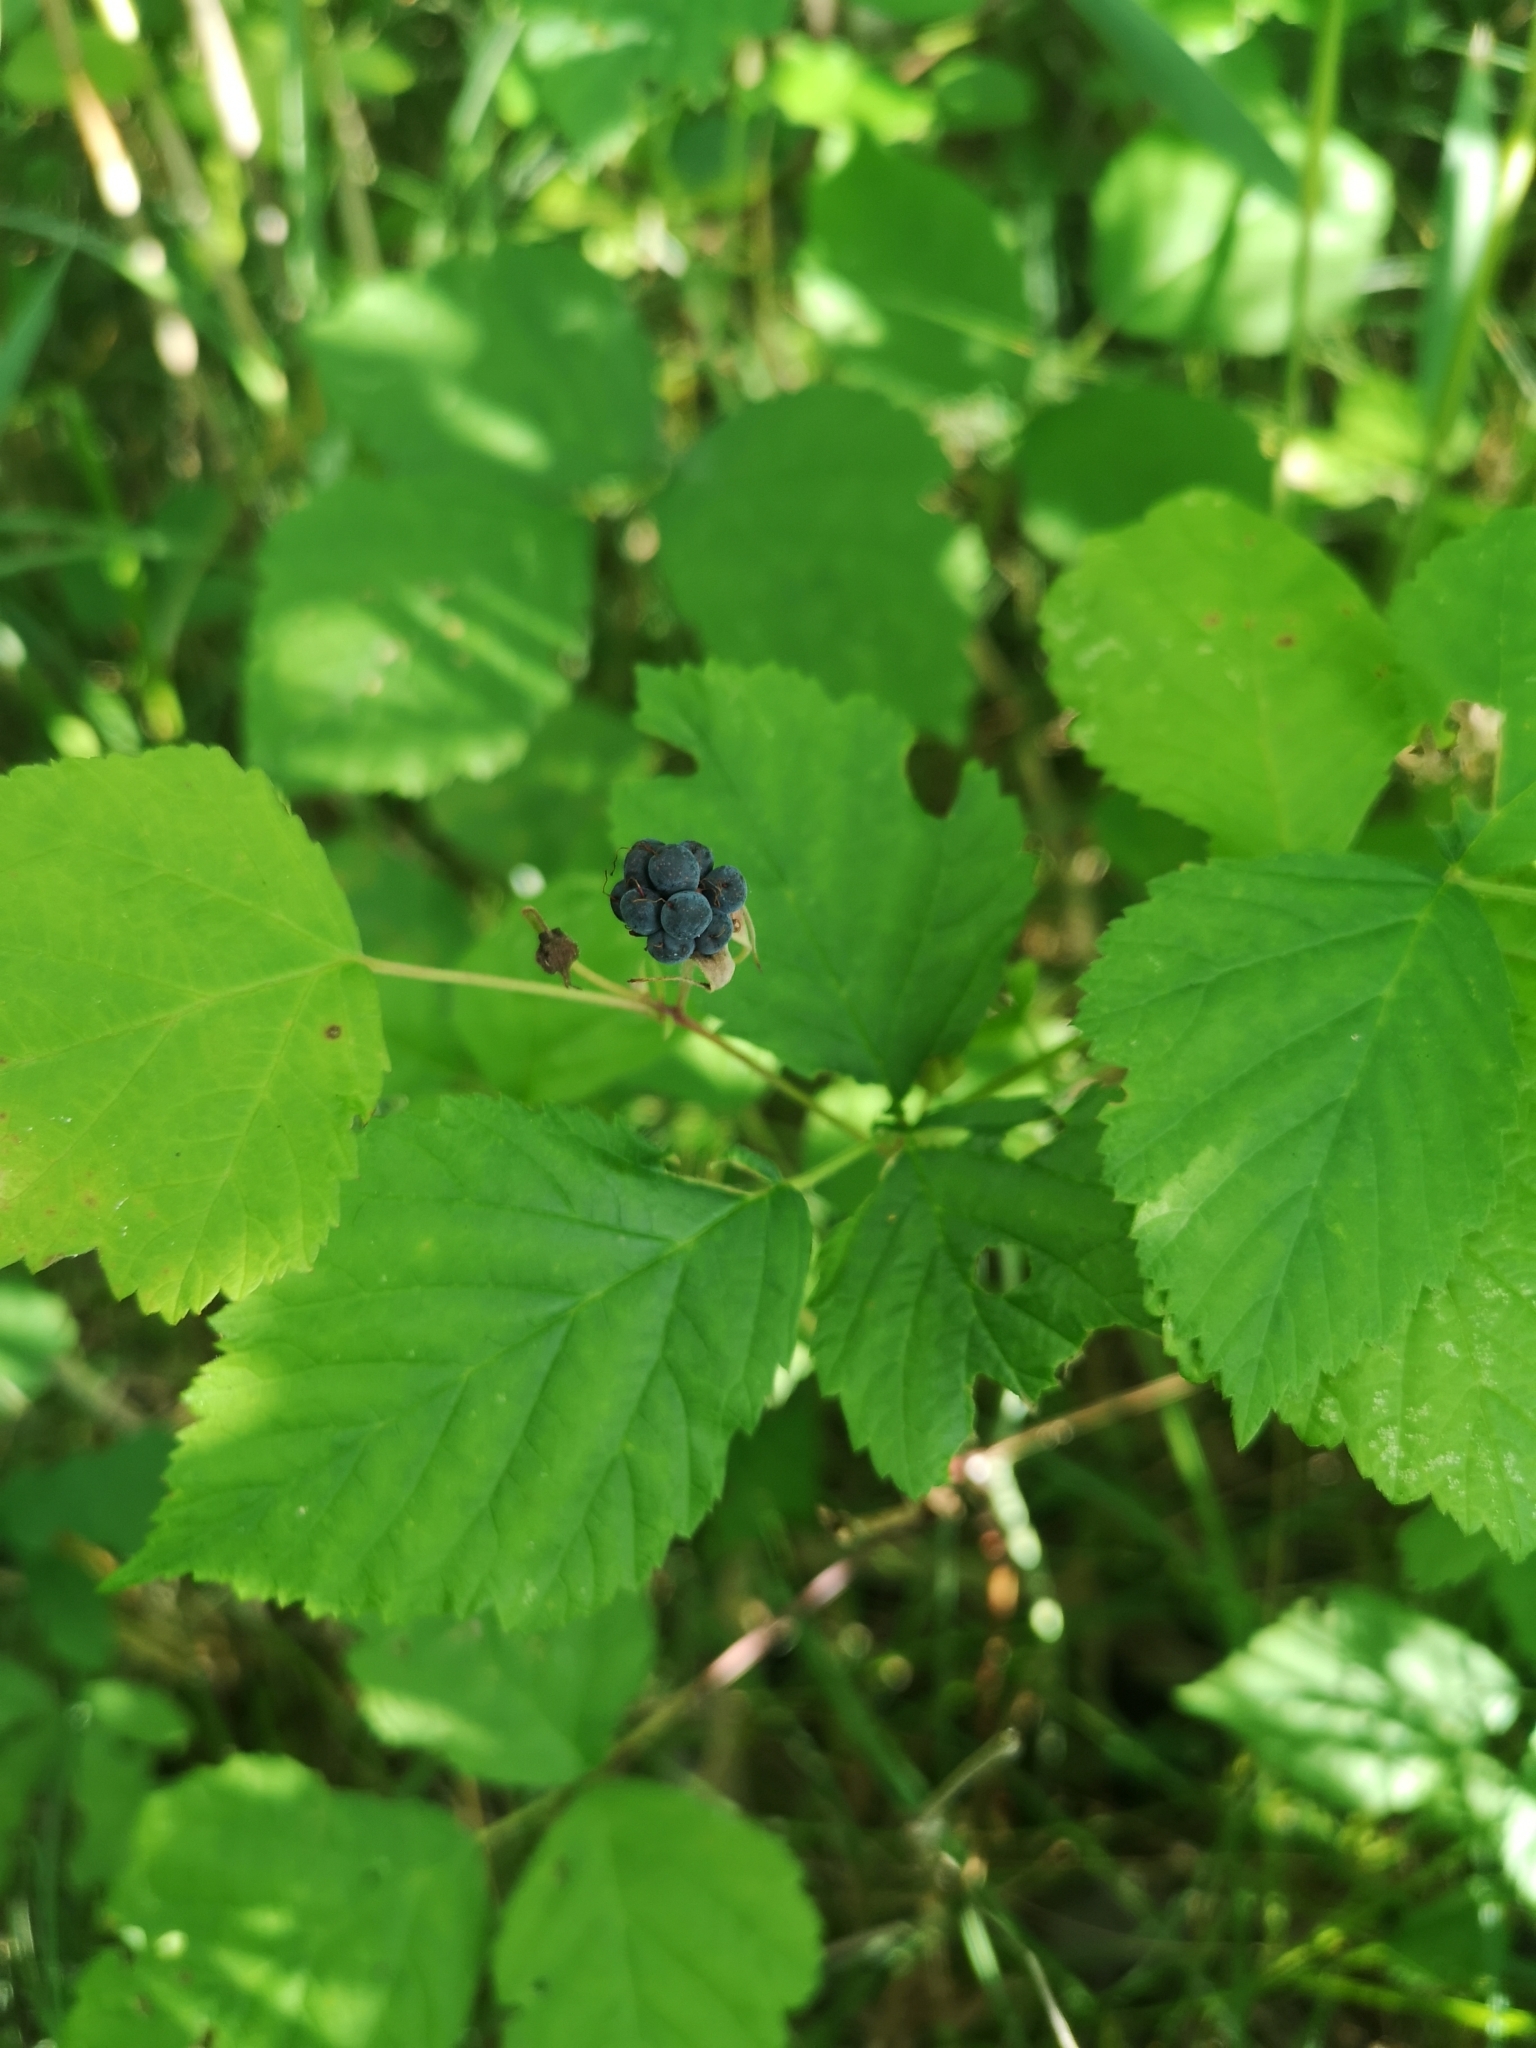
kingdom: Plantae
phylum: Tracheophyta
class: Magnoliopsida
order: Rosales
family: Rosaceae
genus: Rubus
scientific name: Rubus caesius
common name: Dewberry
